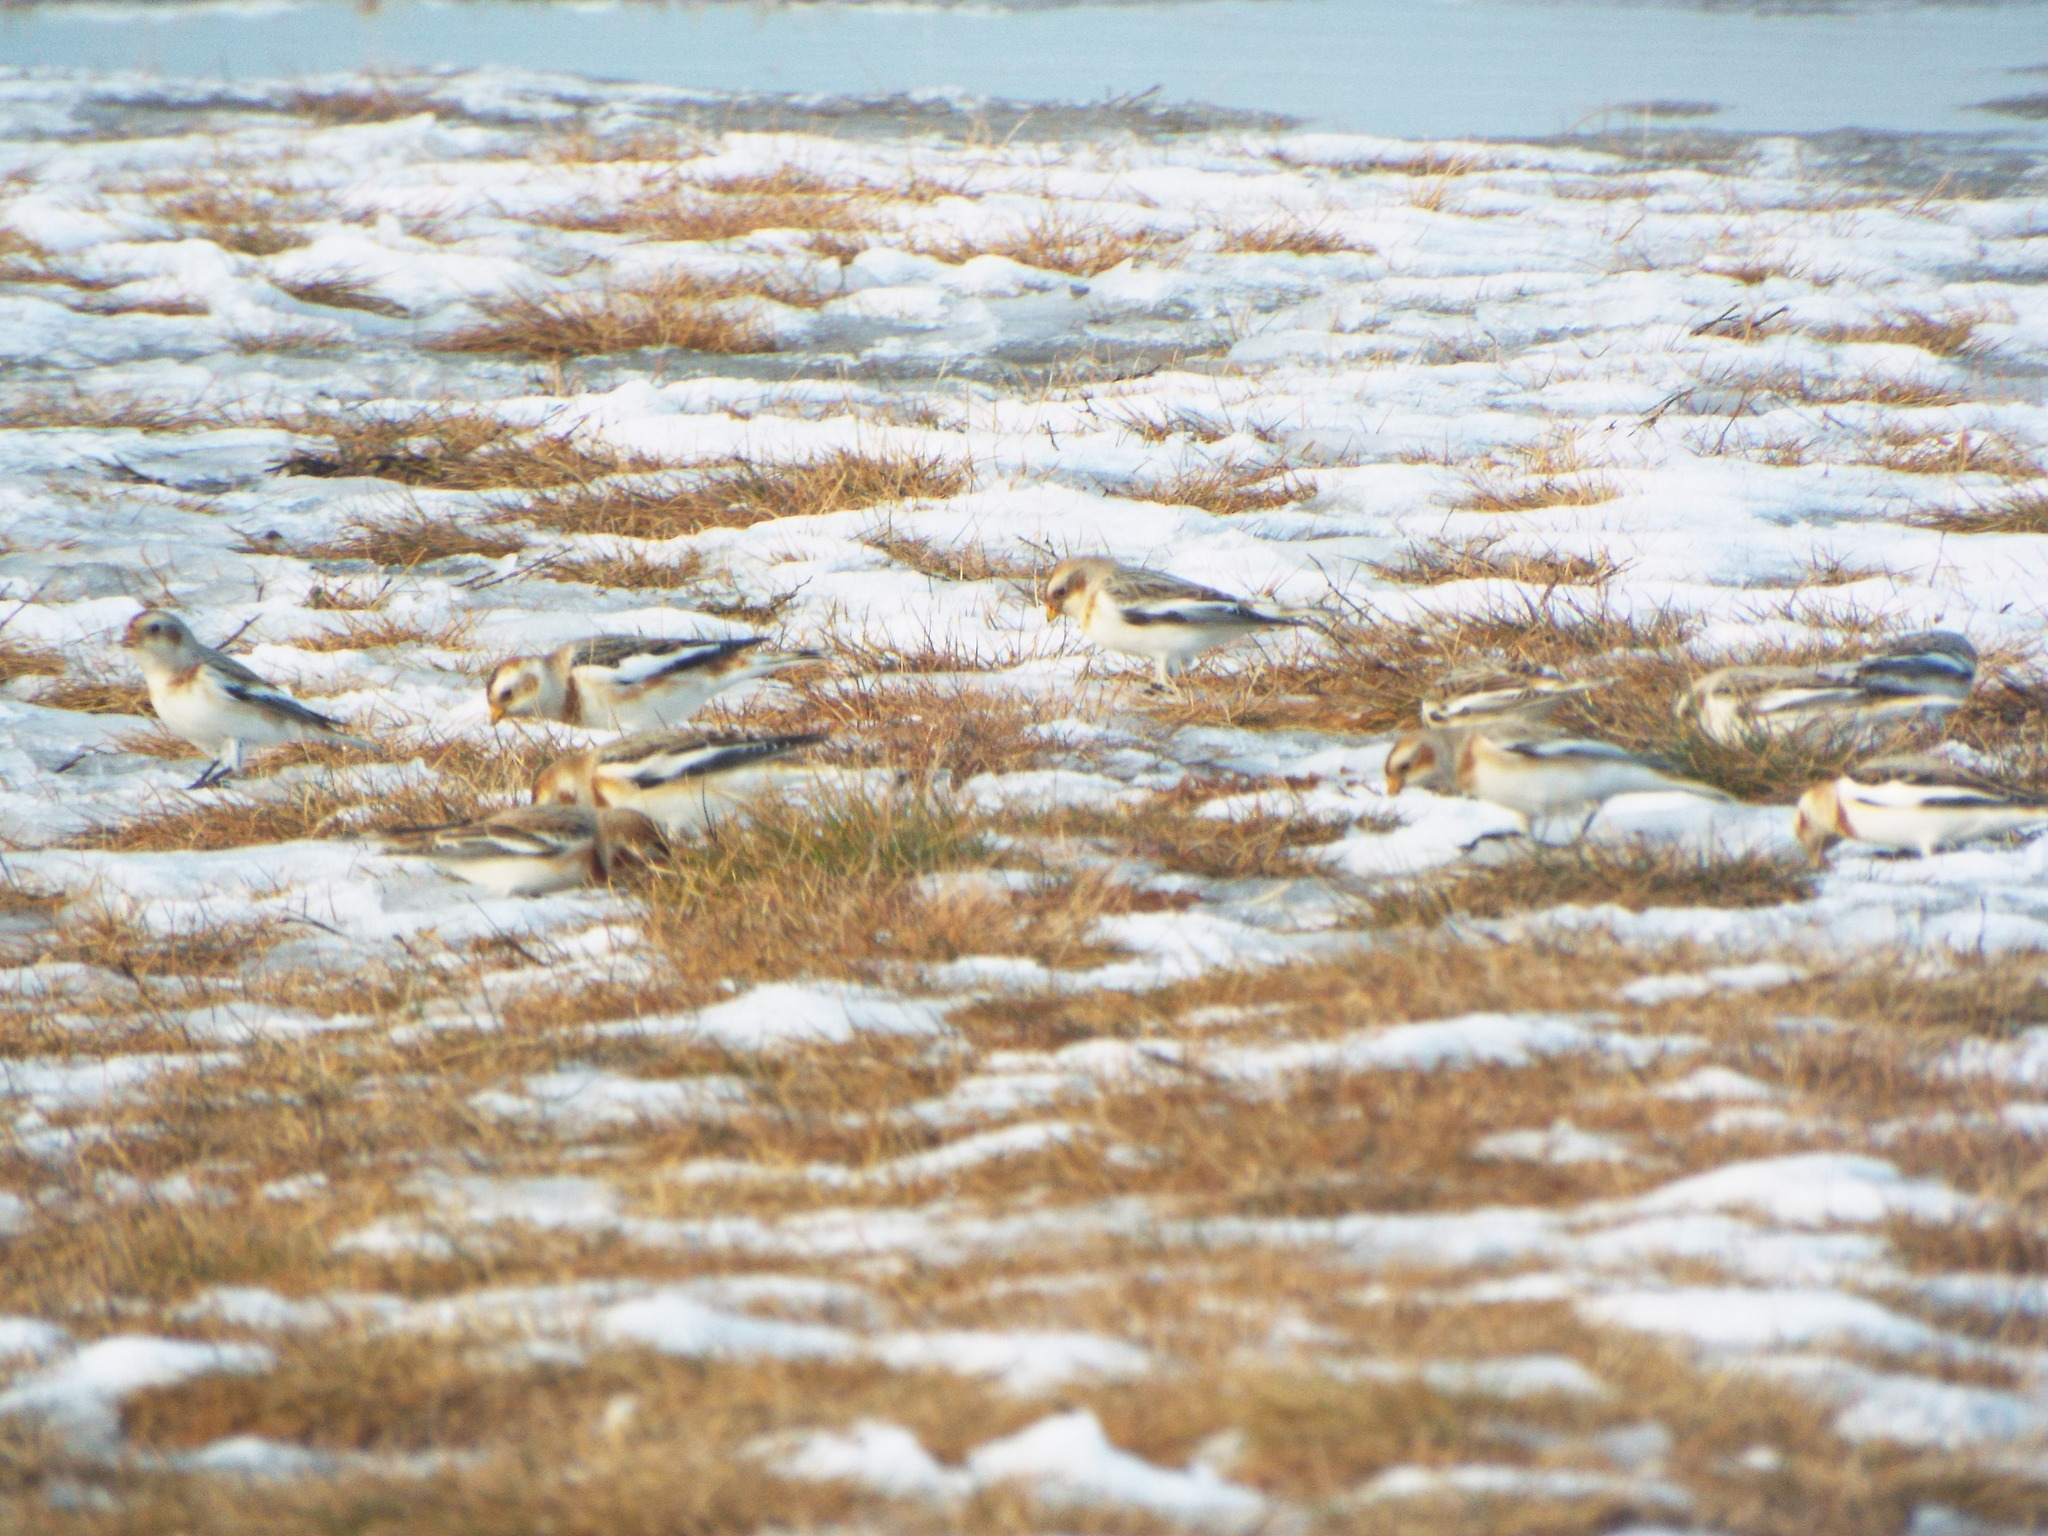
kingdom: Animalia
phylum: Chordata
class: Aves
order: Passeriformes
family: Calcariidae
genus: Plectrophenax
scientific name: Plectrophenax nivalis
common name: Snow bunting
